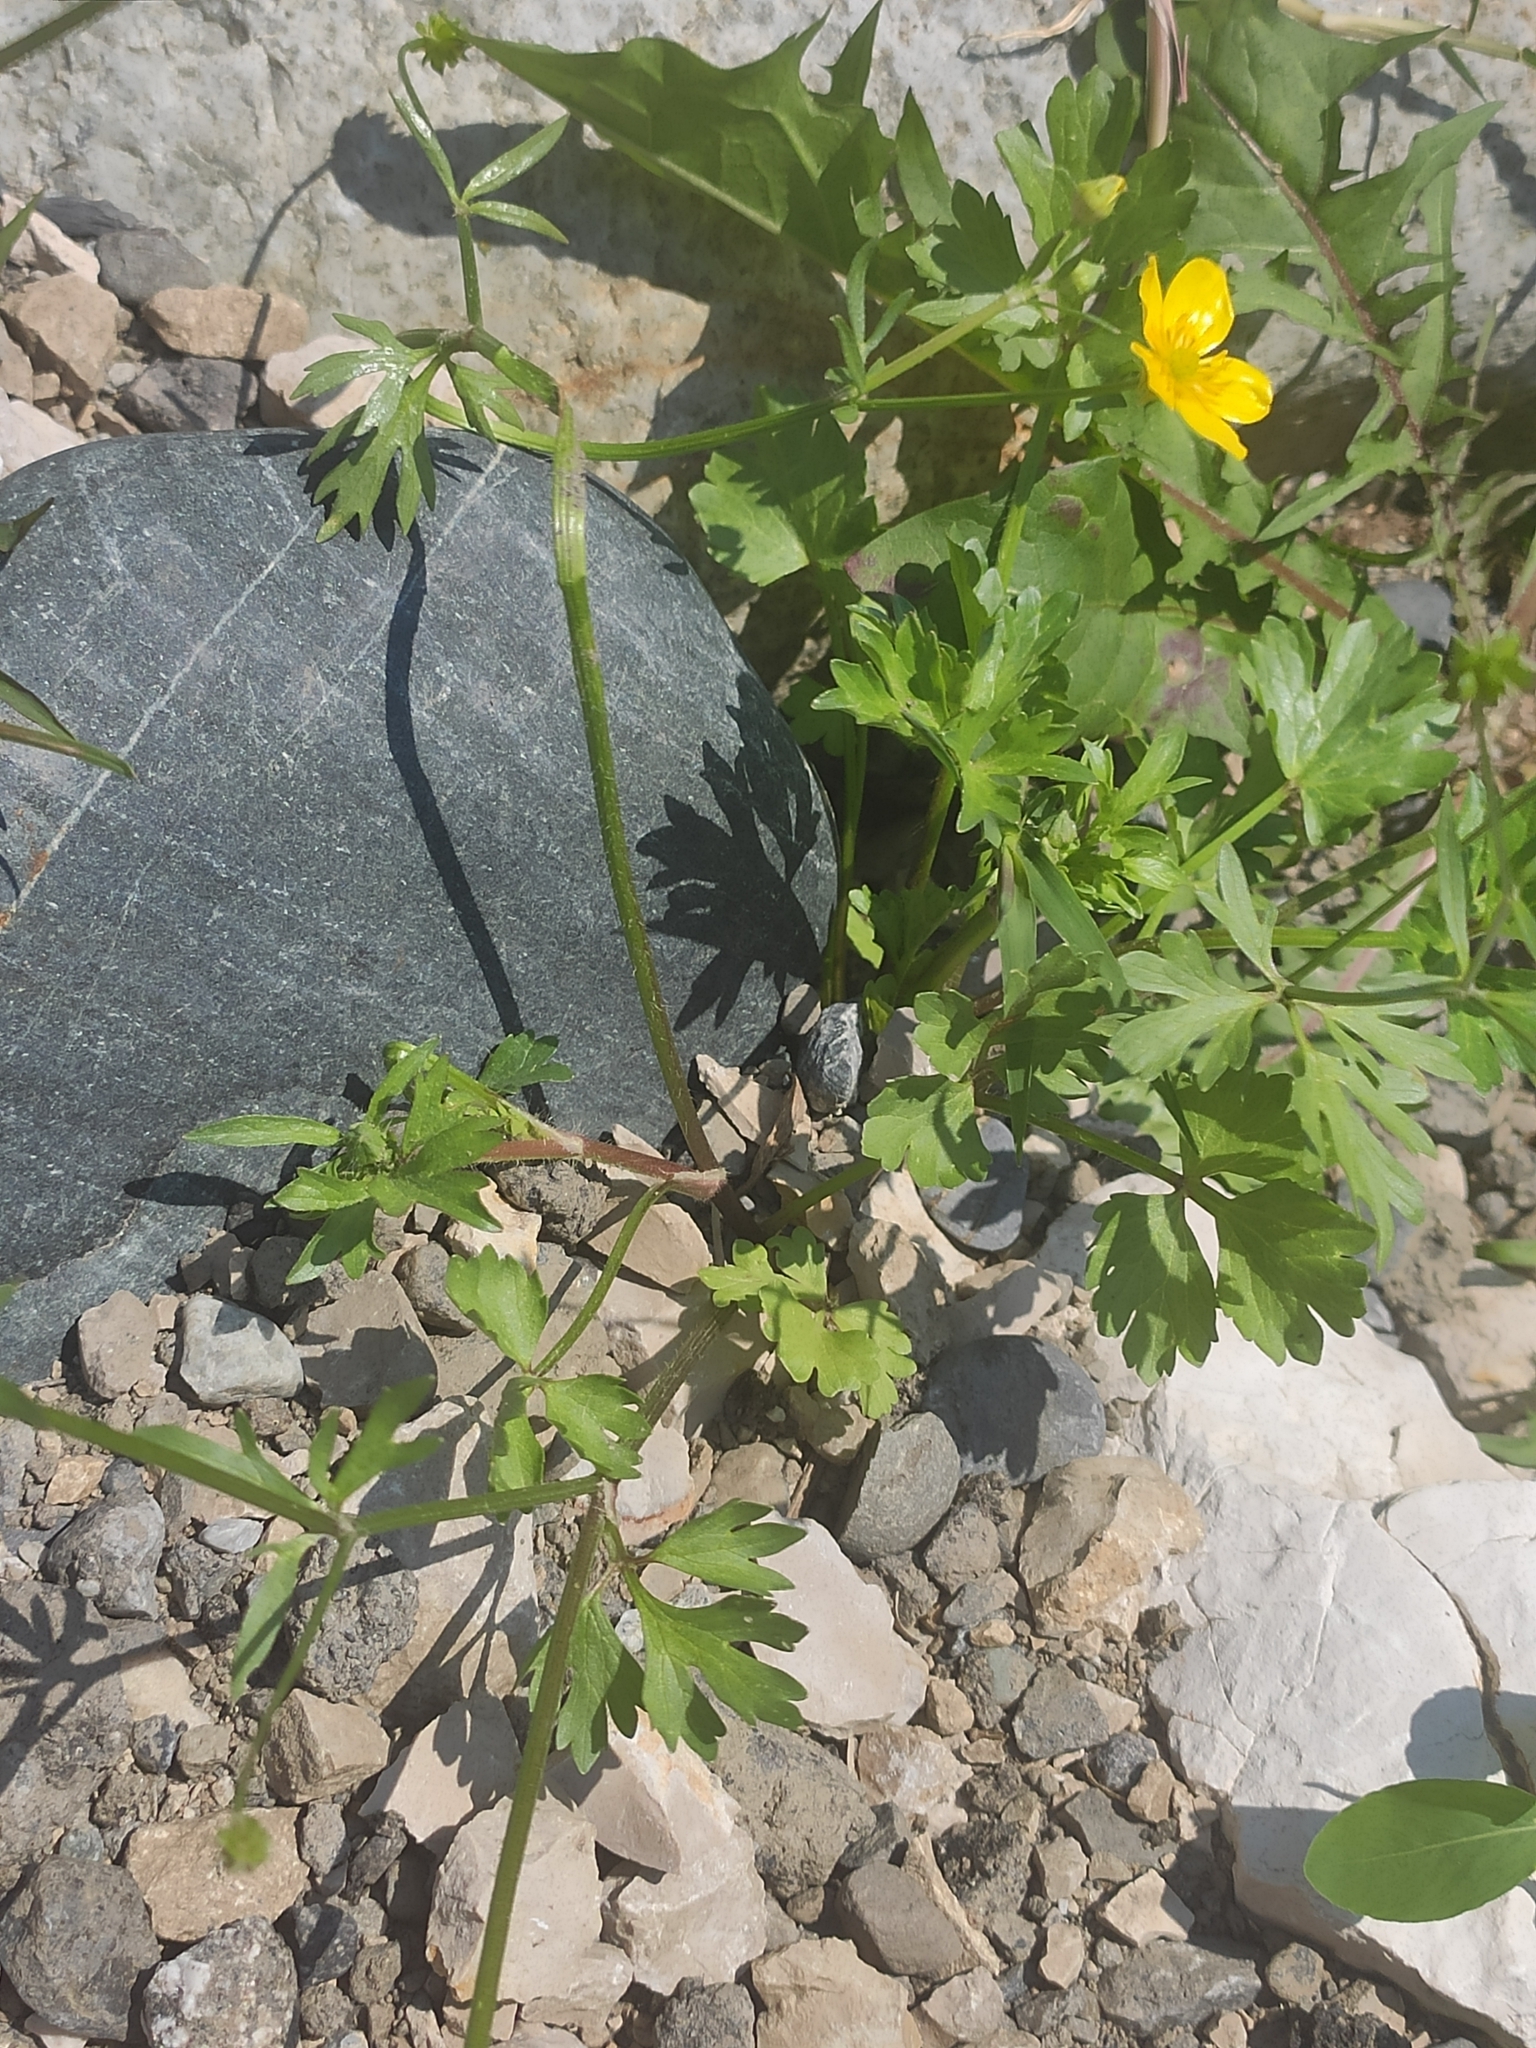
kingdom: Plantae
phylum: Tracheophyta
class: Magnoliopsida
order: Ranunculales
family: Ranunculaceae
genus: Ranunculus
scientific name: Ranunculus repens
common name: Creeping buttercup
